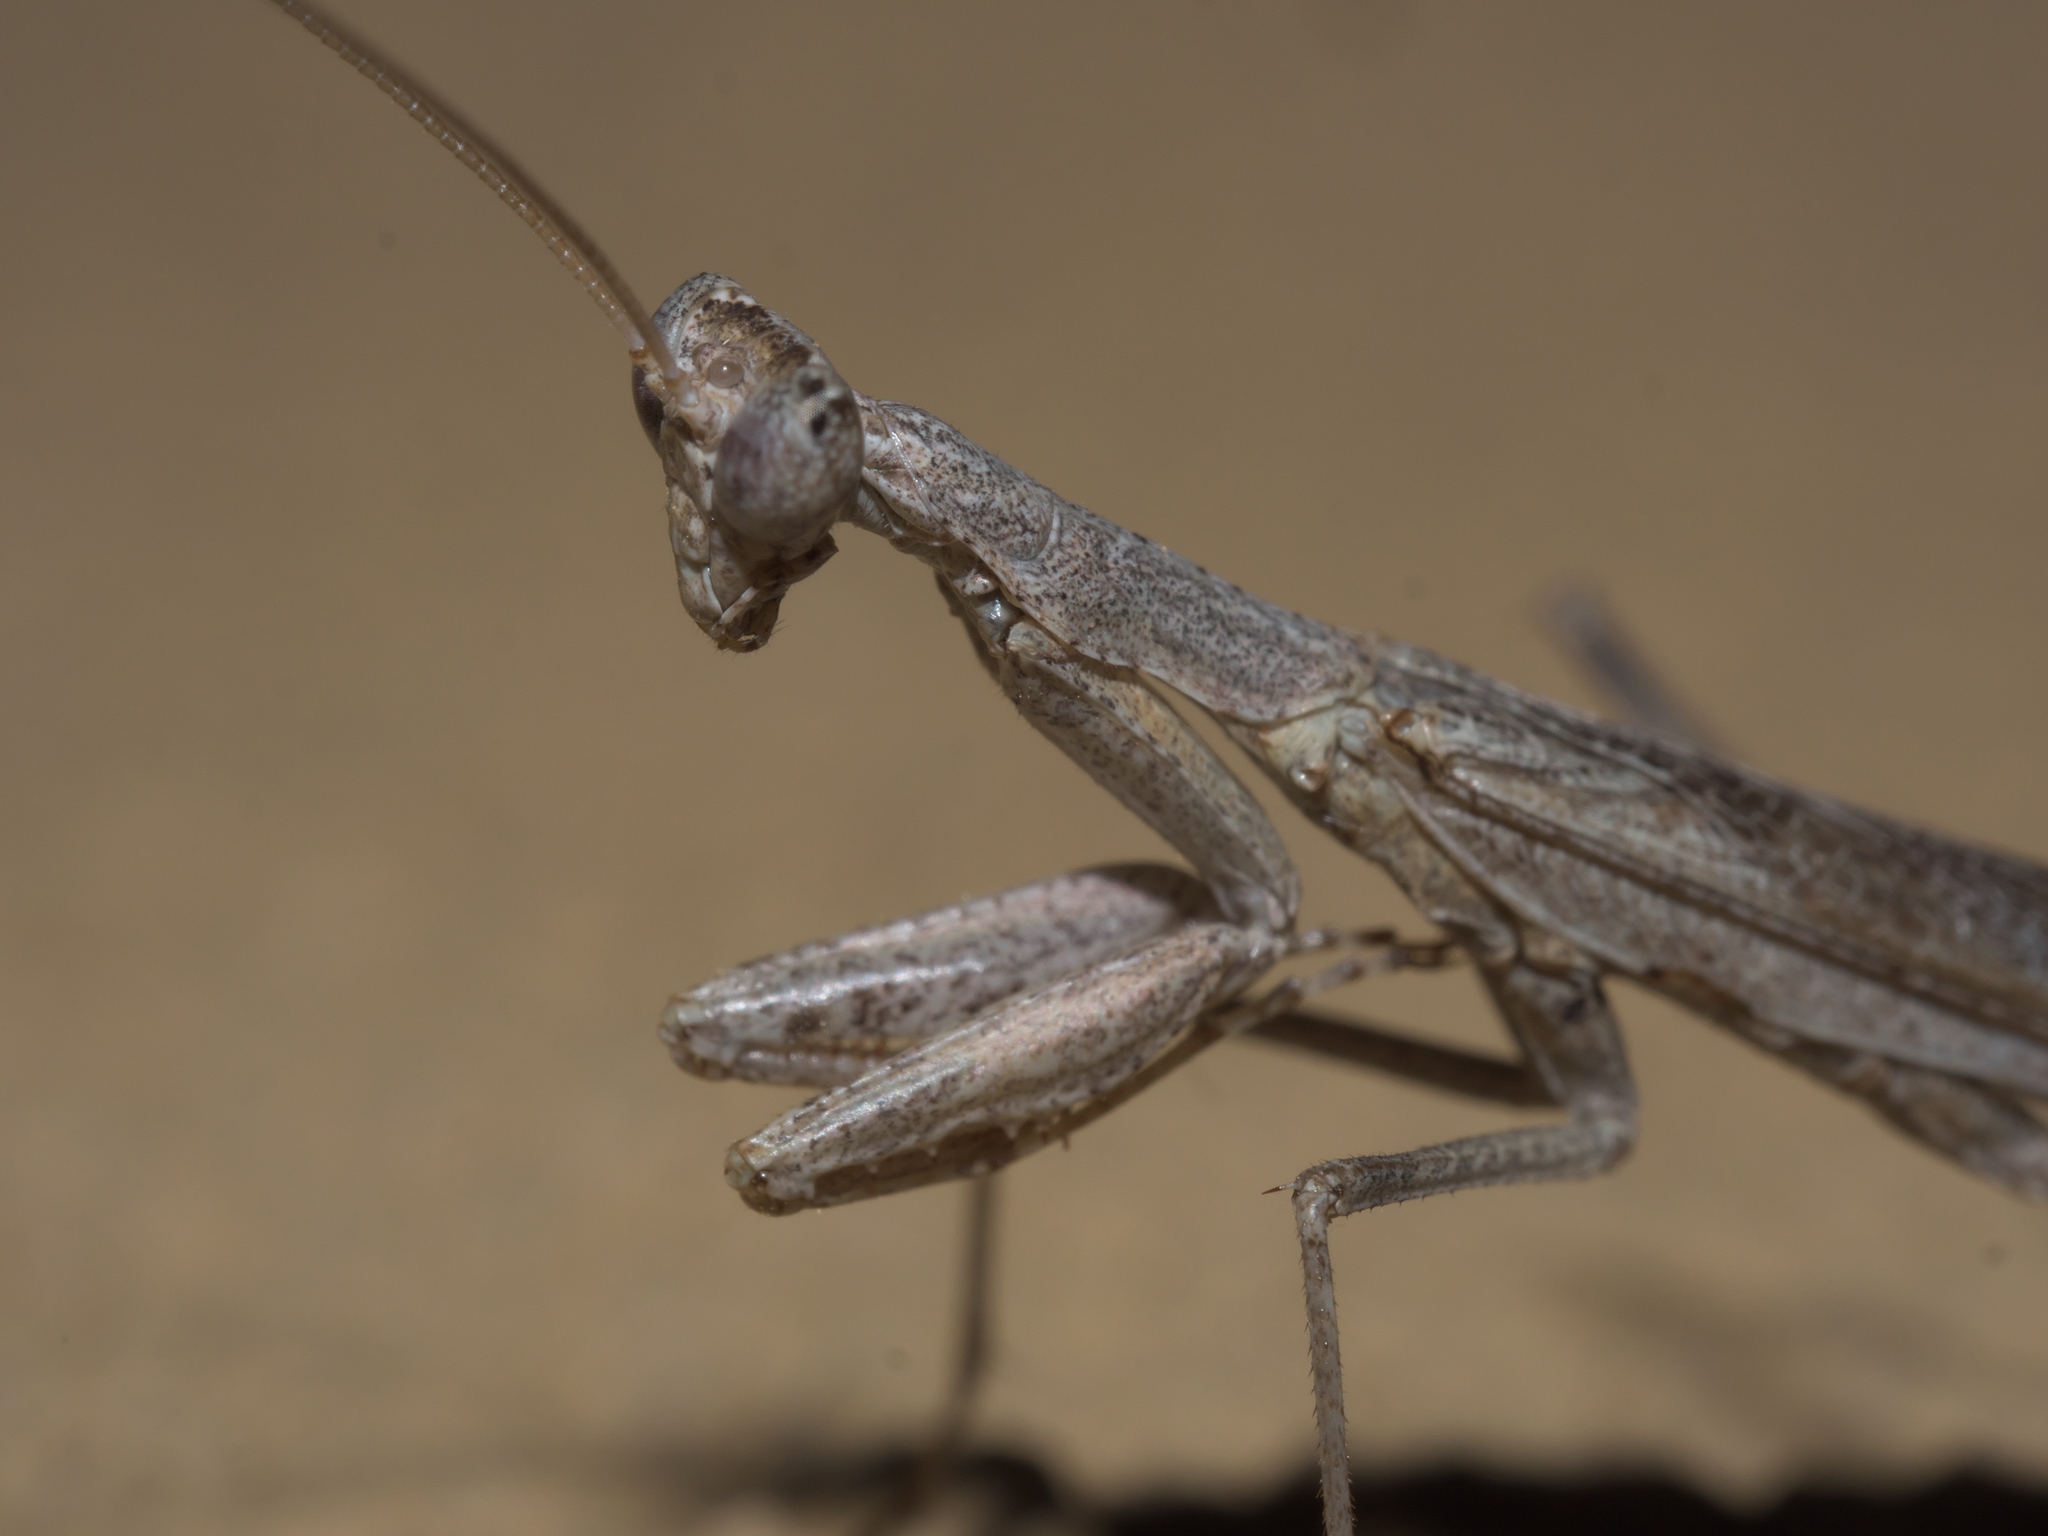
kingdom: Animalia
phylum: Arthropoda
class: Insecta
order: Mantodea
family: Amelidae
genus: Litaneutria
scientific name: Litaneutria minor
